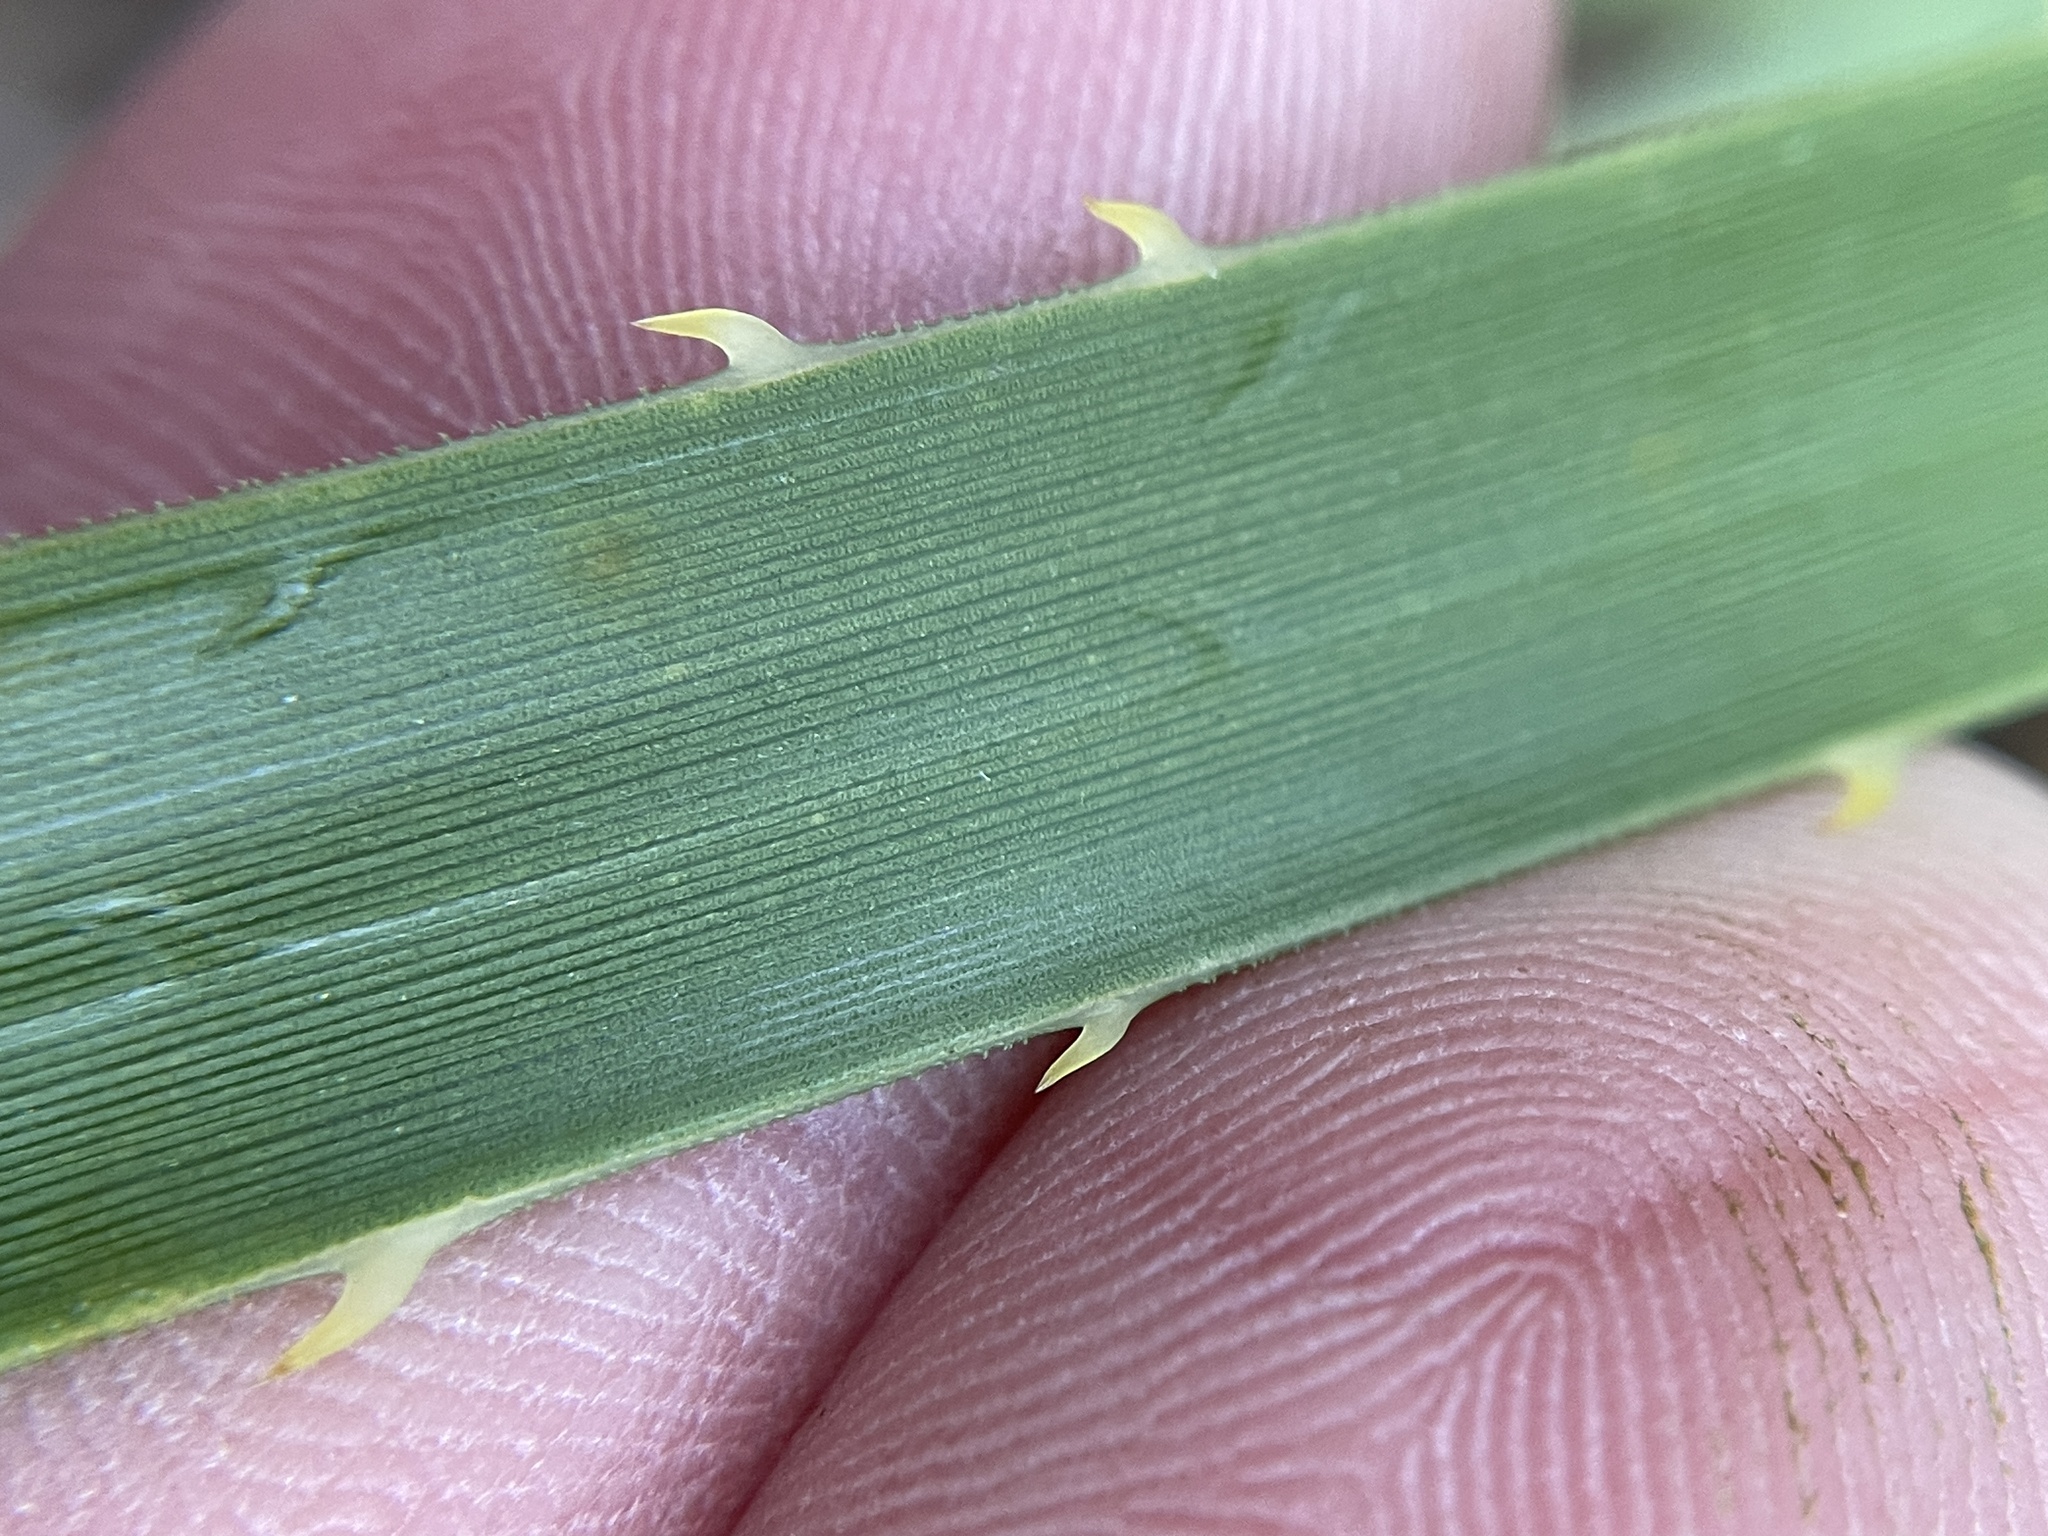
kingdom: Plantae
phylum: Tracheophyta
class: Liliopsida
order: Asparagales
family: Asparagaceae
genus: Dasylirion
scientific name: Dasylirion texanum
